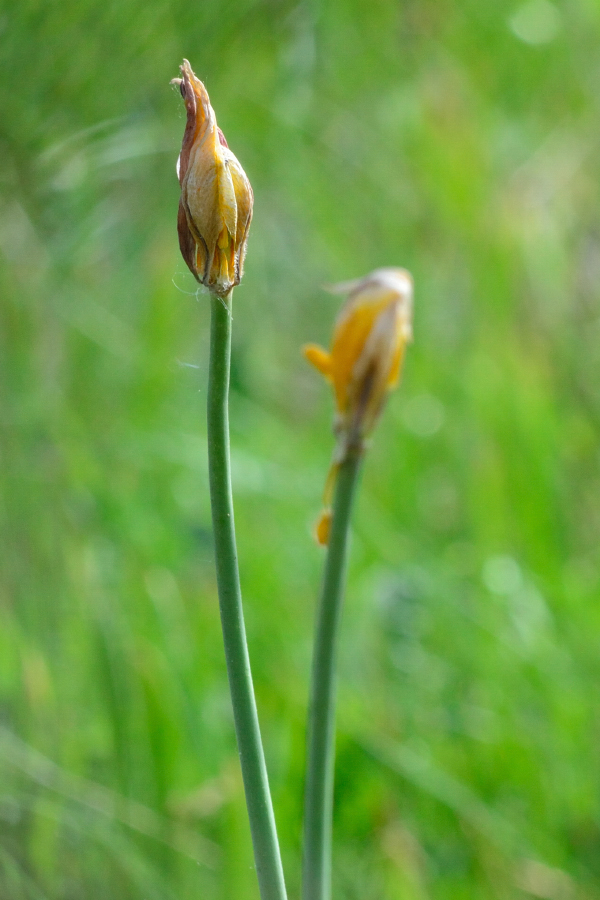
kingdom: Plantae
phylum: Tracheophyta
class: Liliopsida
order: Liliales
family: Liliaceae
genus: Tulipa
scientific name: Tulipa sylvestris
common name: Wild tulip
